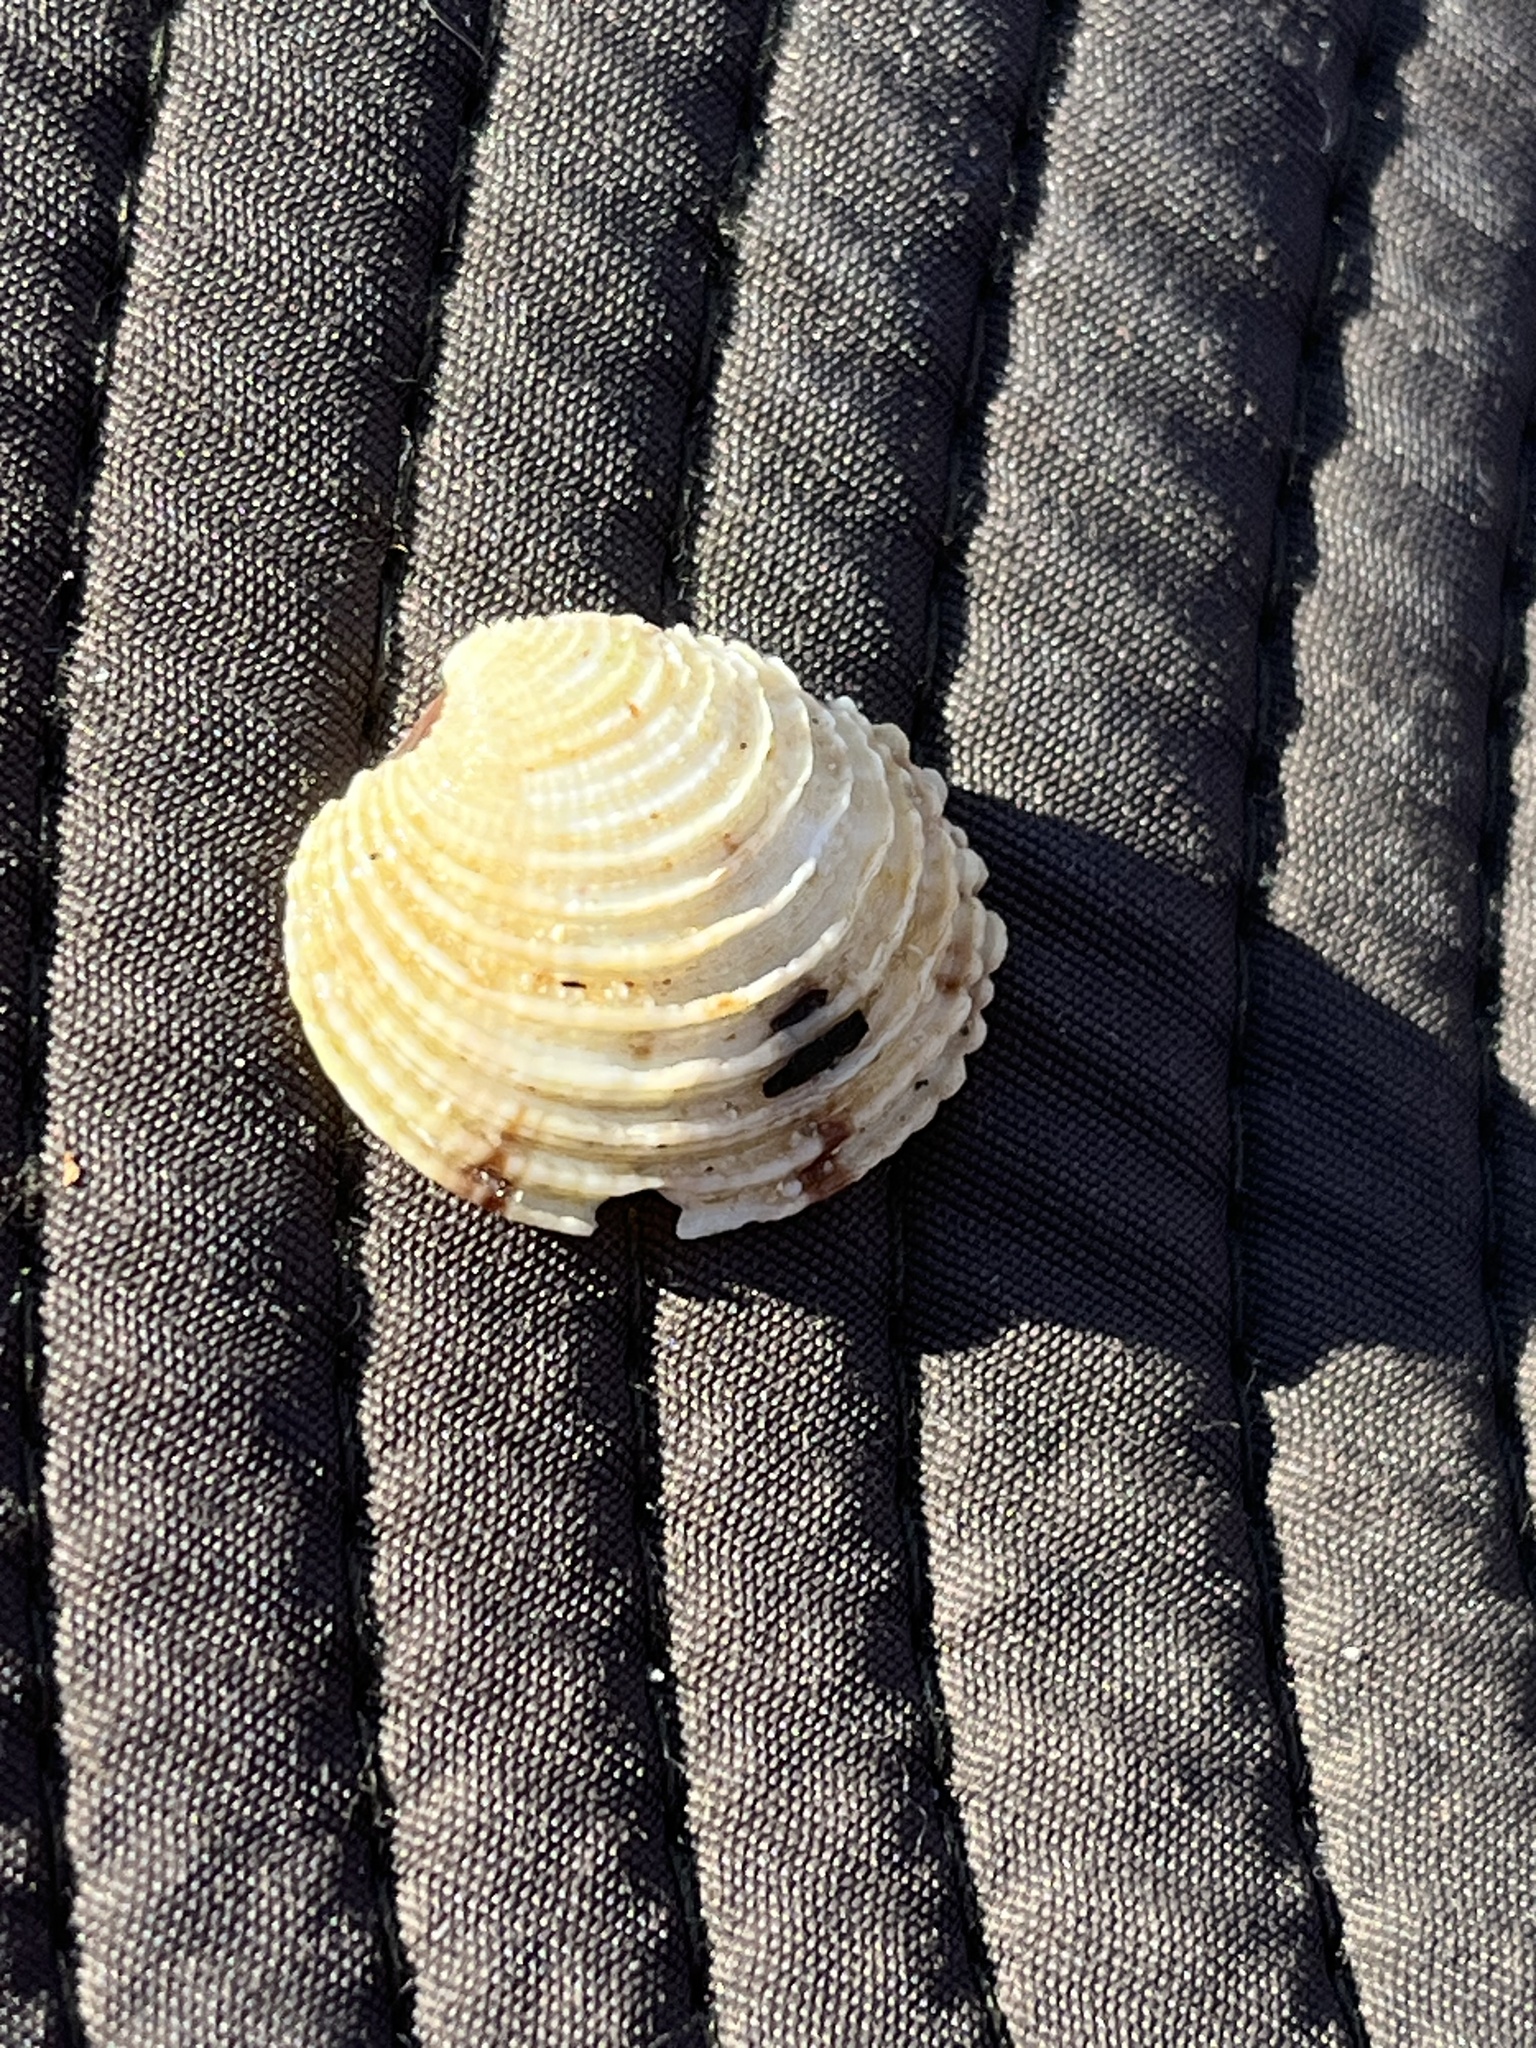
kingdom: Animalia
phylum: Mollusca
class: Bivalvia
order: Venerida
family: Veneridae
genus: Venus
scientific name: Venus verrucosa
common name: Warty venus
